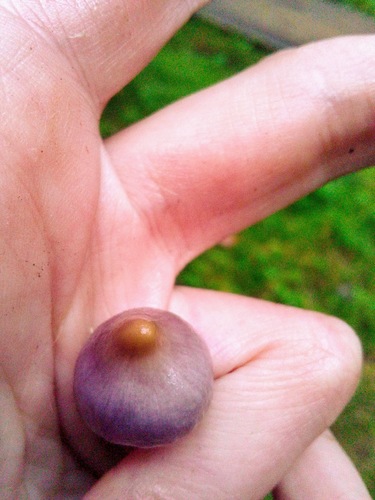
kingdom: Fungi
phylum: Basidiomycota
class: Agaricomycetes
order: Agaricales
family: Inocybaceae
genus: Inocybe
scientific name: Inocybe geophylla
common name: White fibrecap
